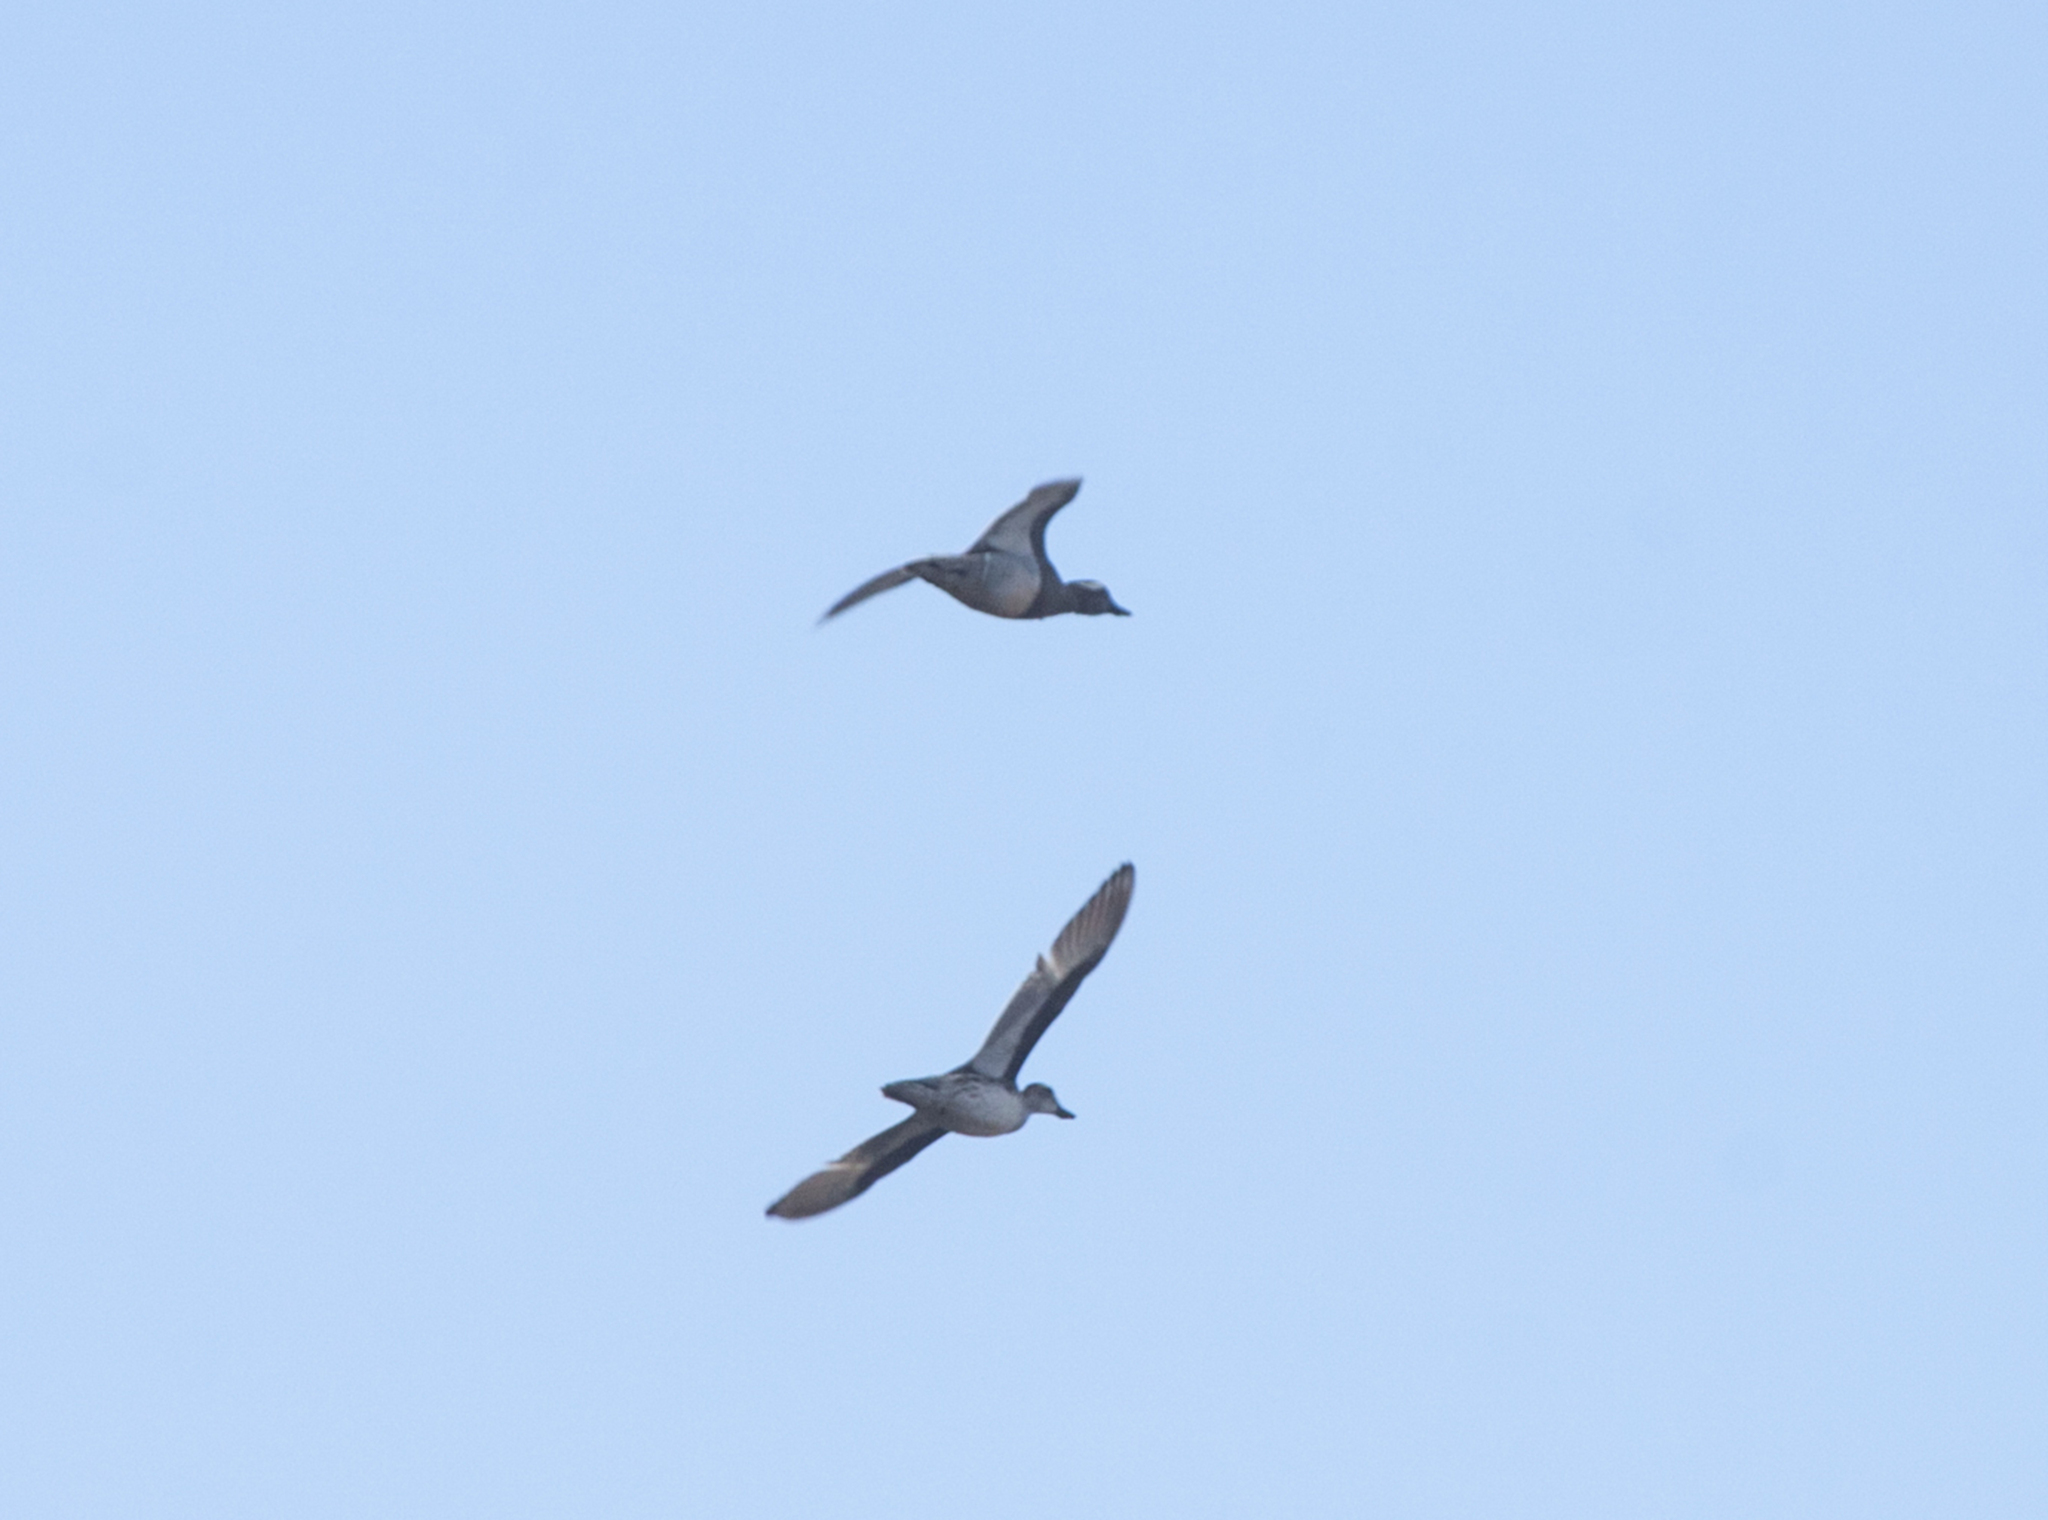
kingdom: Animalia
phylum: Chordata
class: Aves
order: Anseriformes
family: Anatidae
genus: Spatula
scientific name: Spatula querquedula
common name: Garganey
